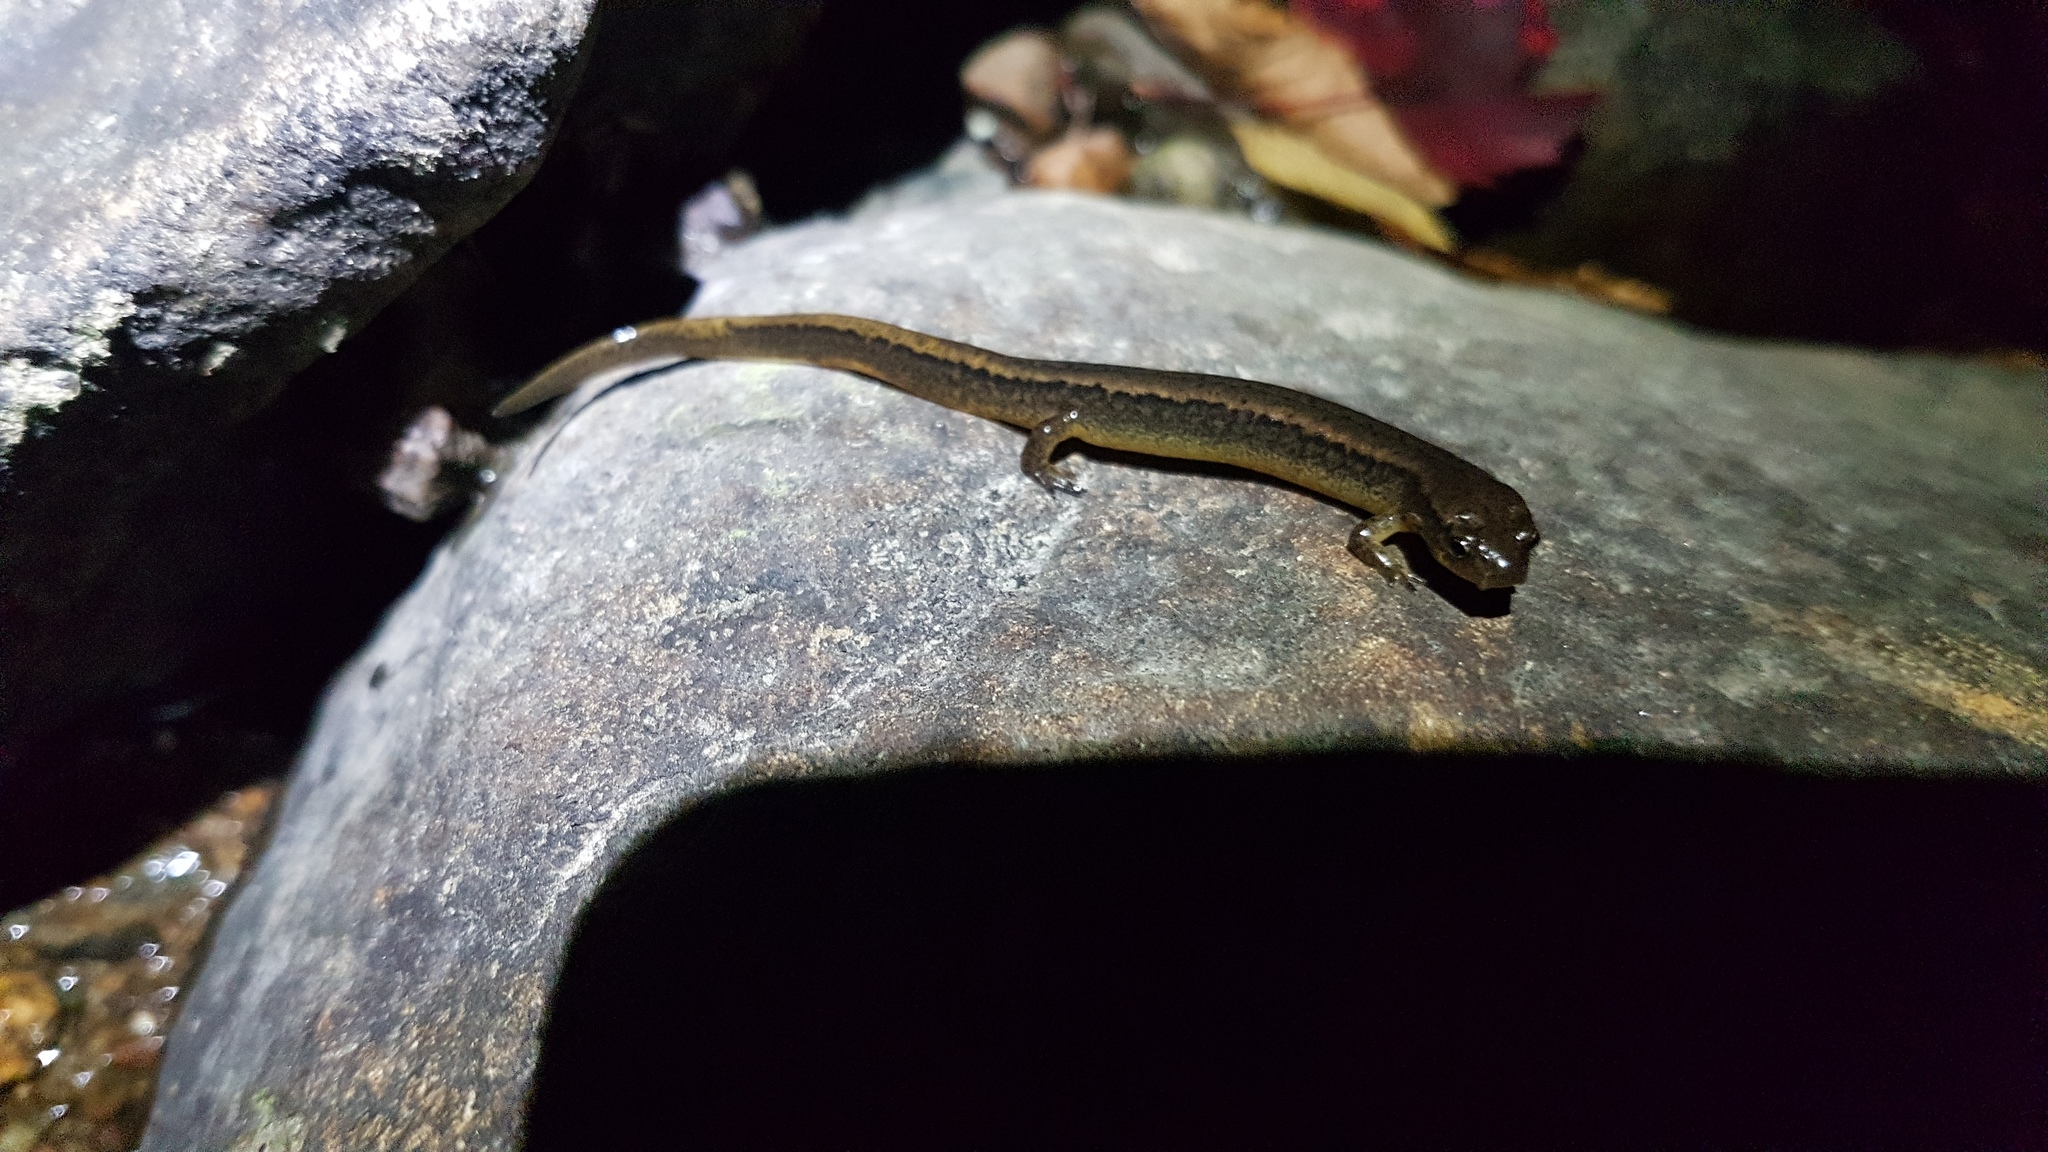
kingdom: Animalia
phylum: Chordata
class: Amphibia
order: Caudata
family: Plethodontidae
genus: Eurycea
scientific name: Eurycea bislineata
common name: Northern two-lined salamander
